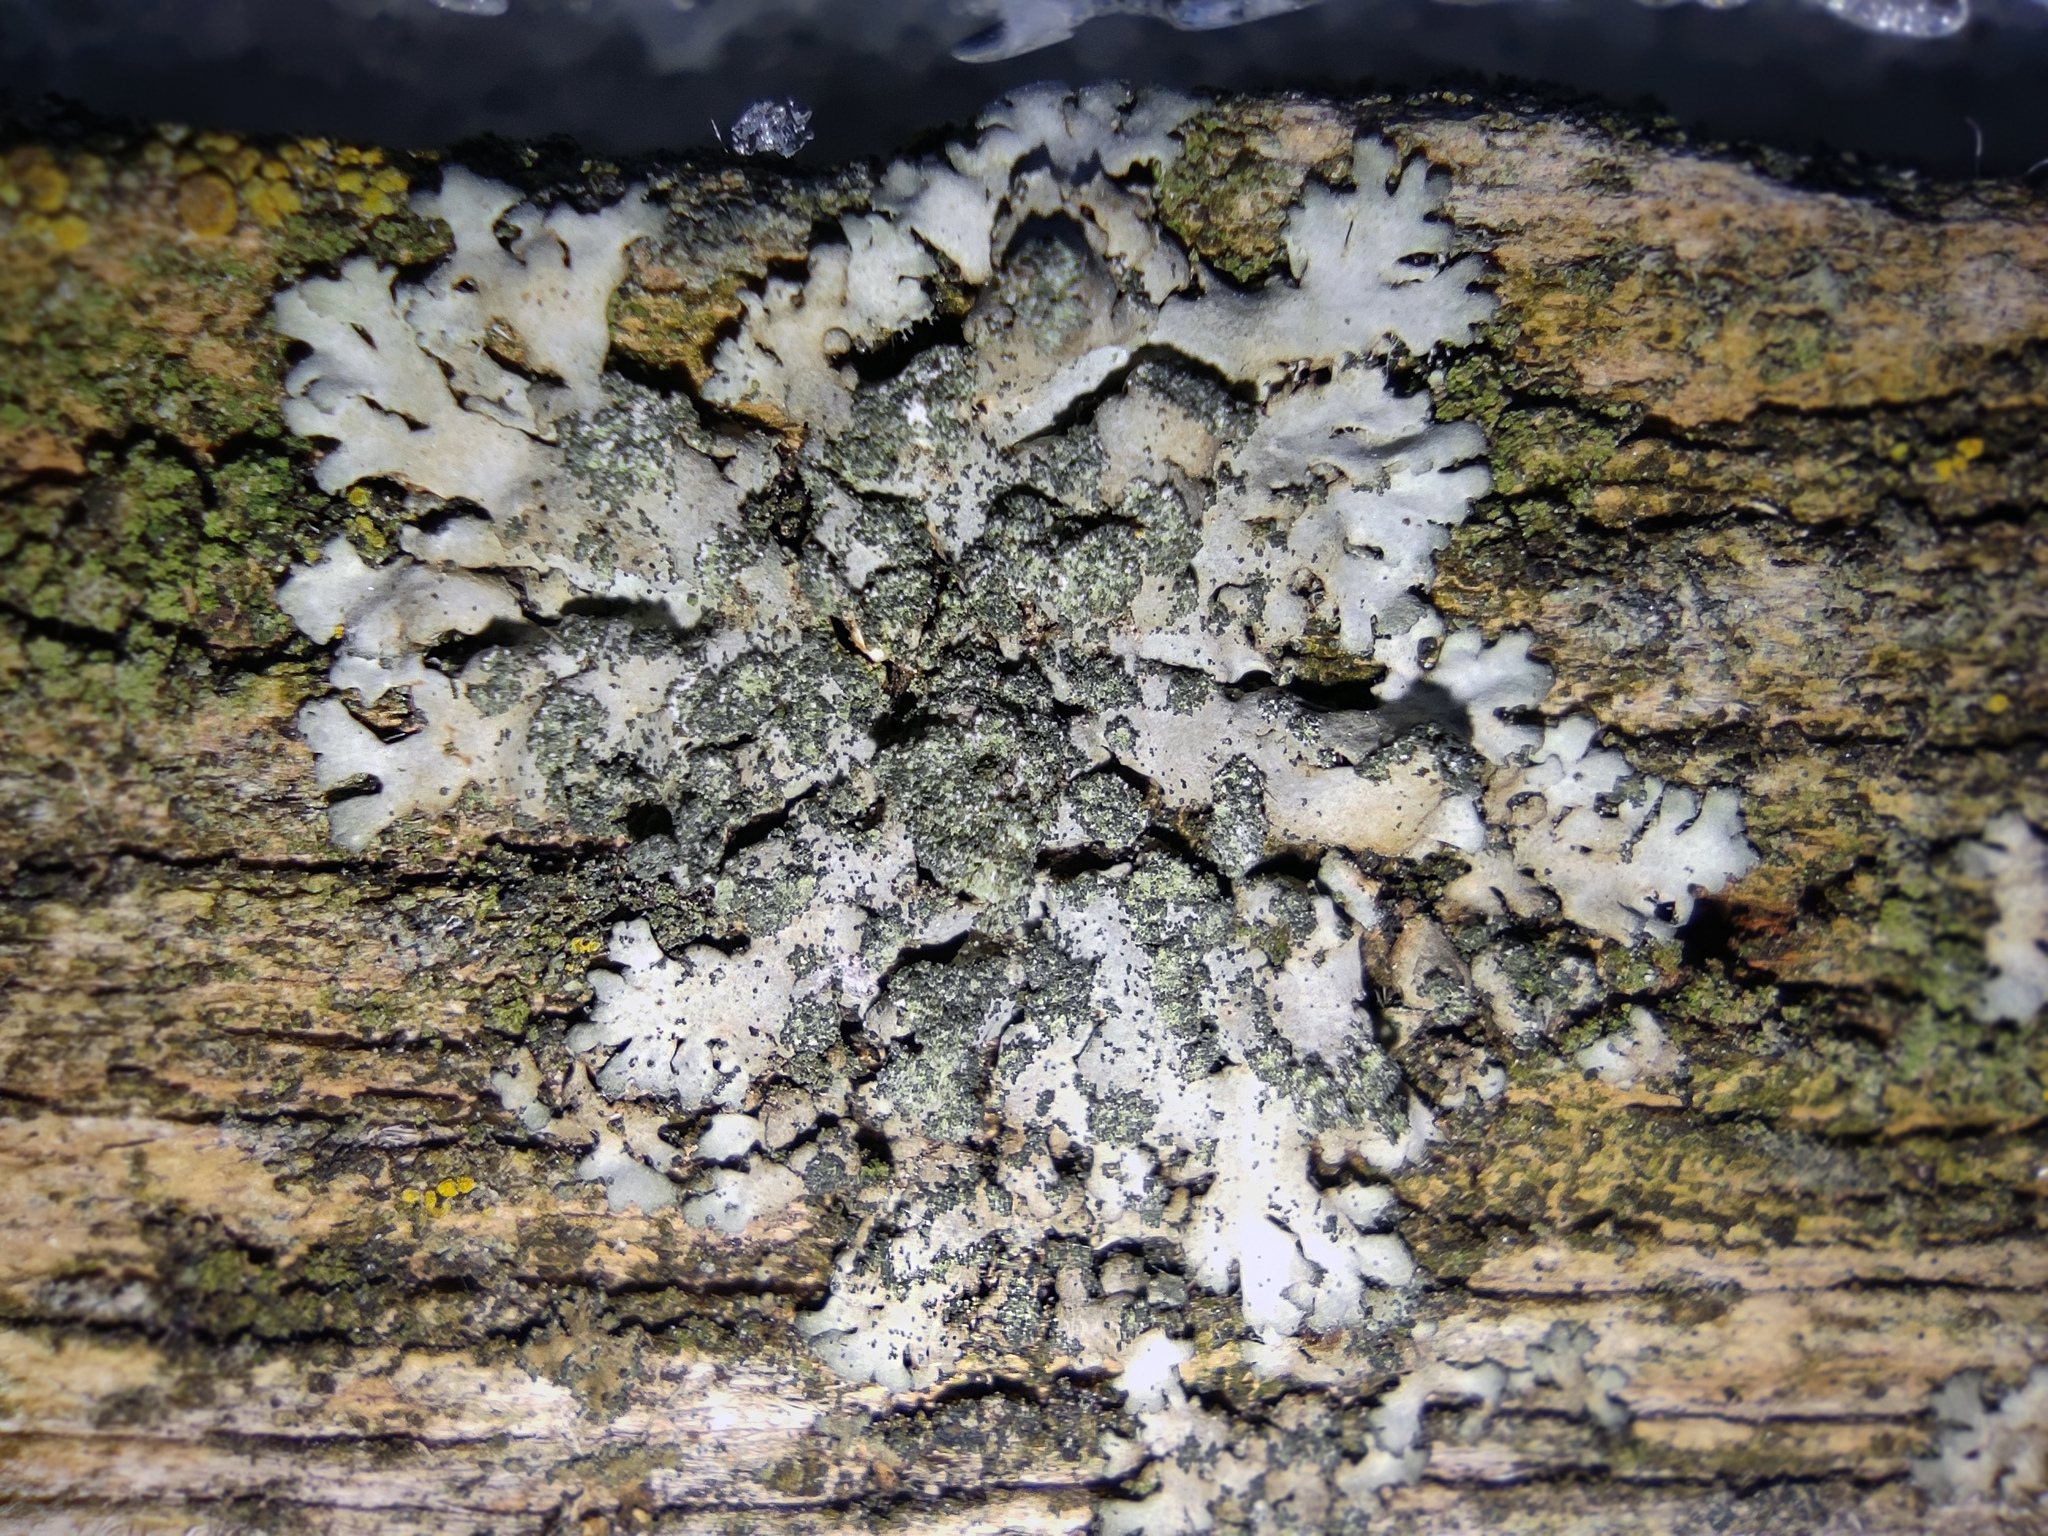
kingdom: Fungi
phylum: Ascomycota
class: Lecanoromycetes
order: Caliciales
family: Physciaceae
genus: Phaeophyscia
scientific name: Phaeophyscia orbicularis
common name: Mealy shadow lichen
